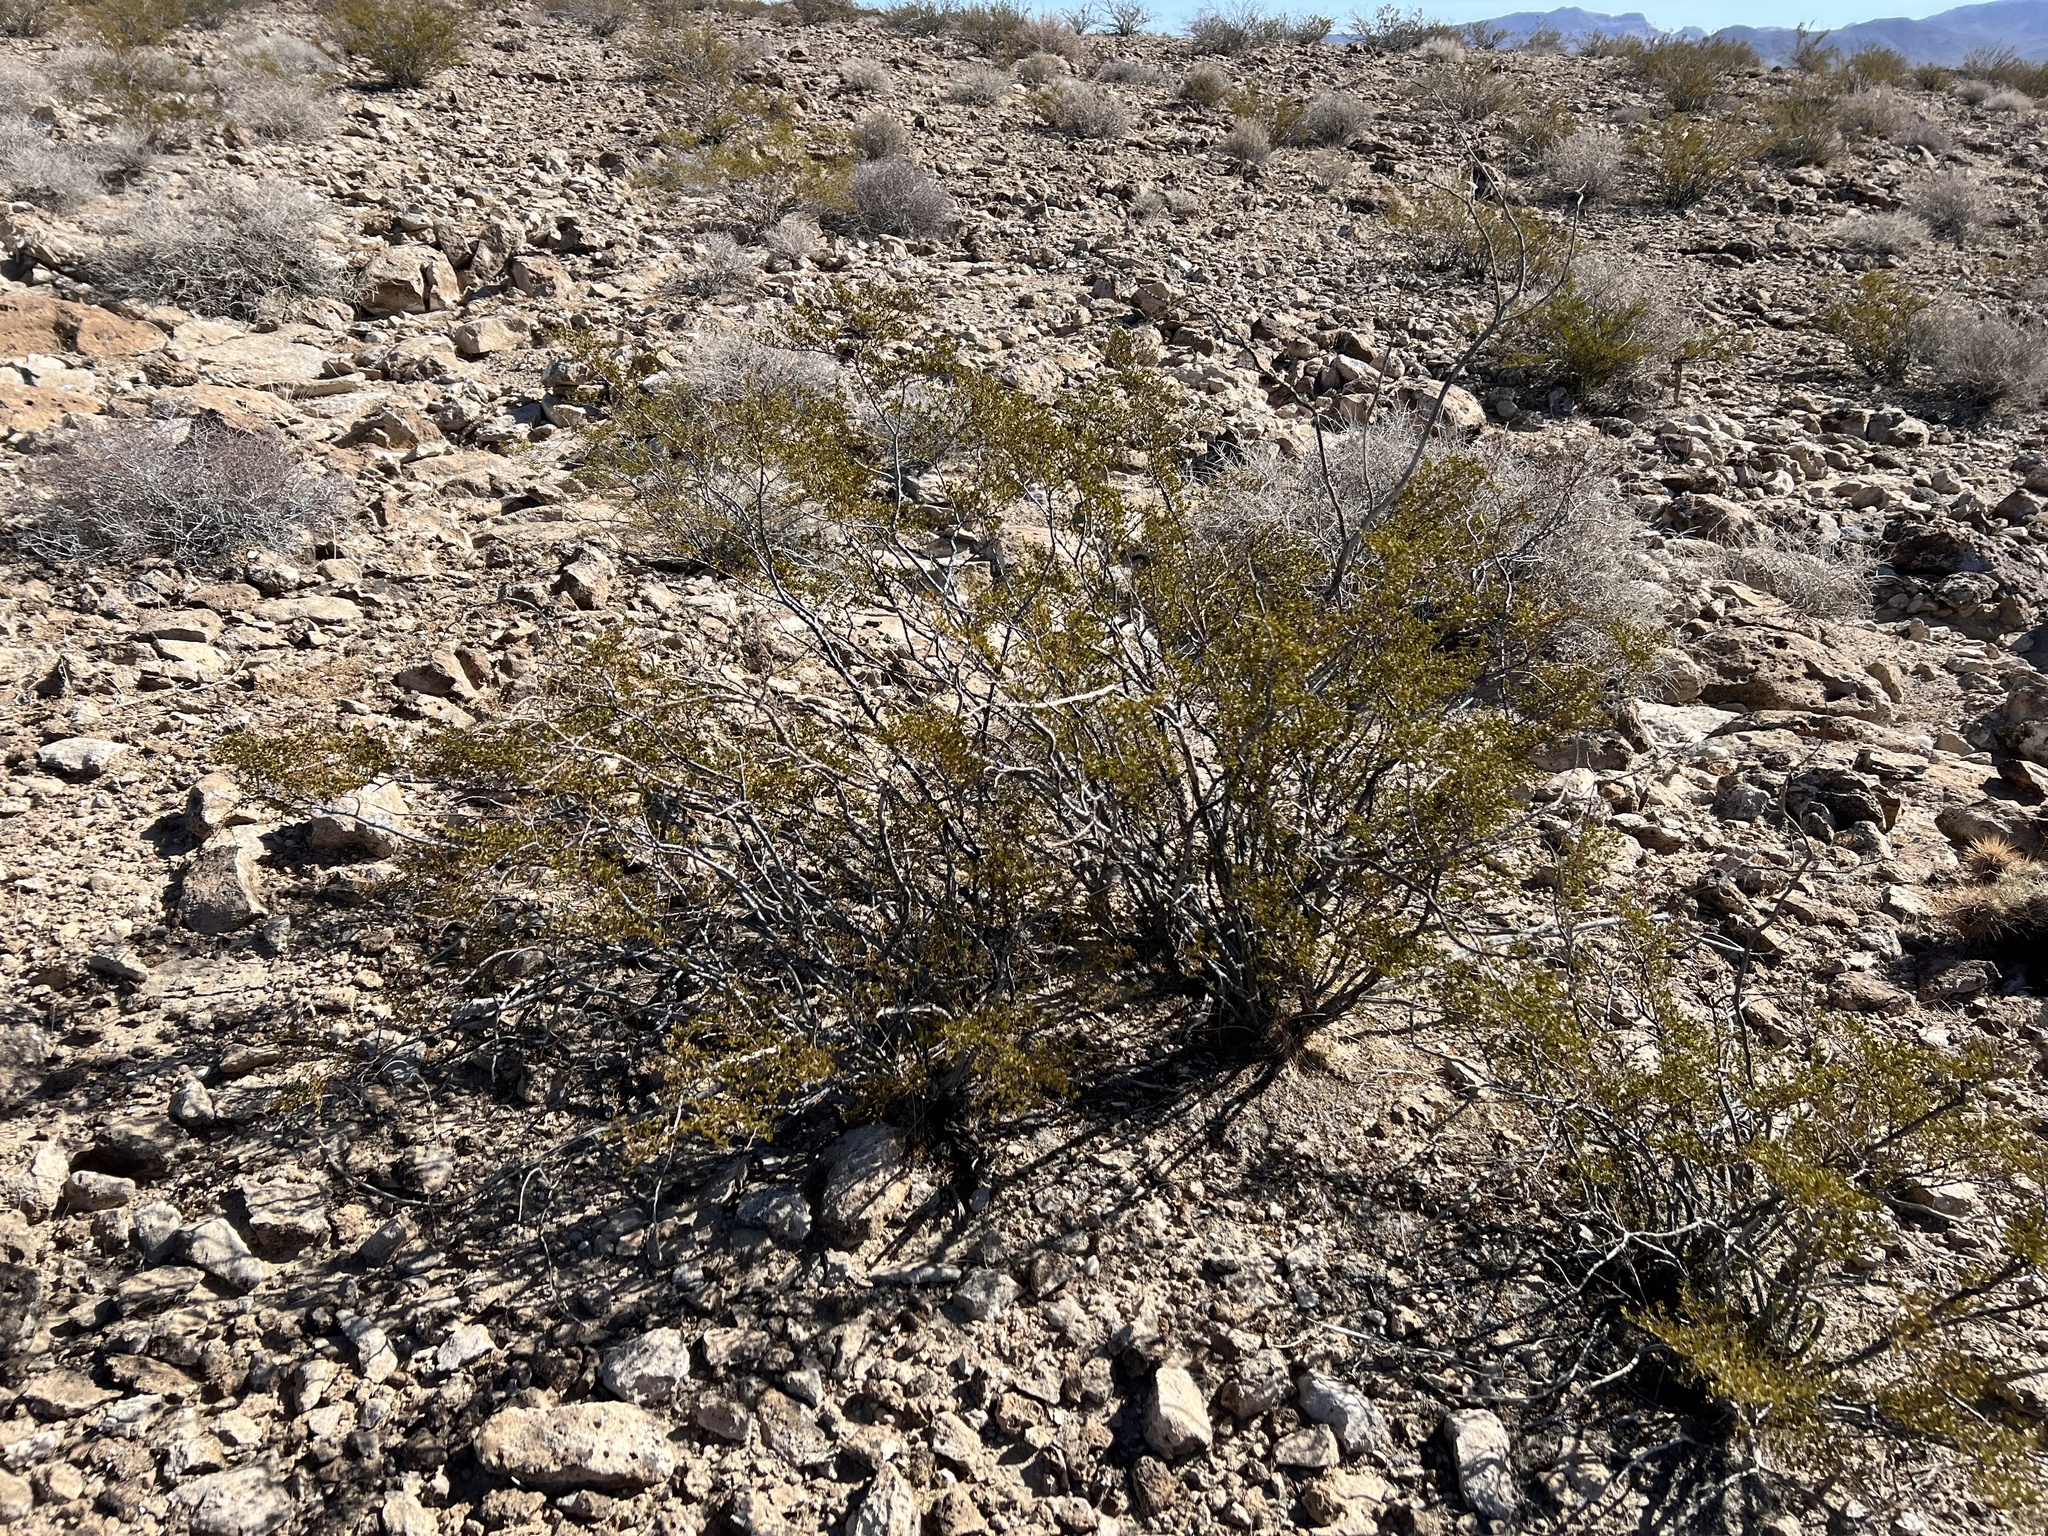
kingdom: Plantae
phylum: Tracheophyta
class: Magnoliopsida
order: Zygophyllales
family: Zygophyllaceae
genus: Larrea
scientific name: Larrea tridentata
